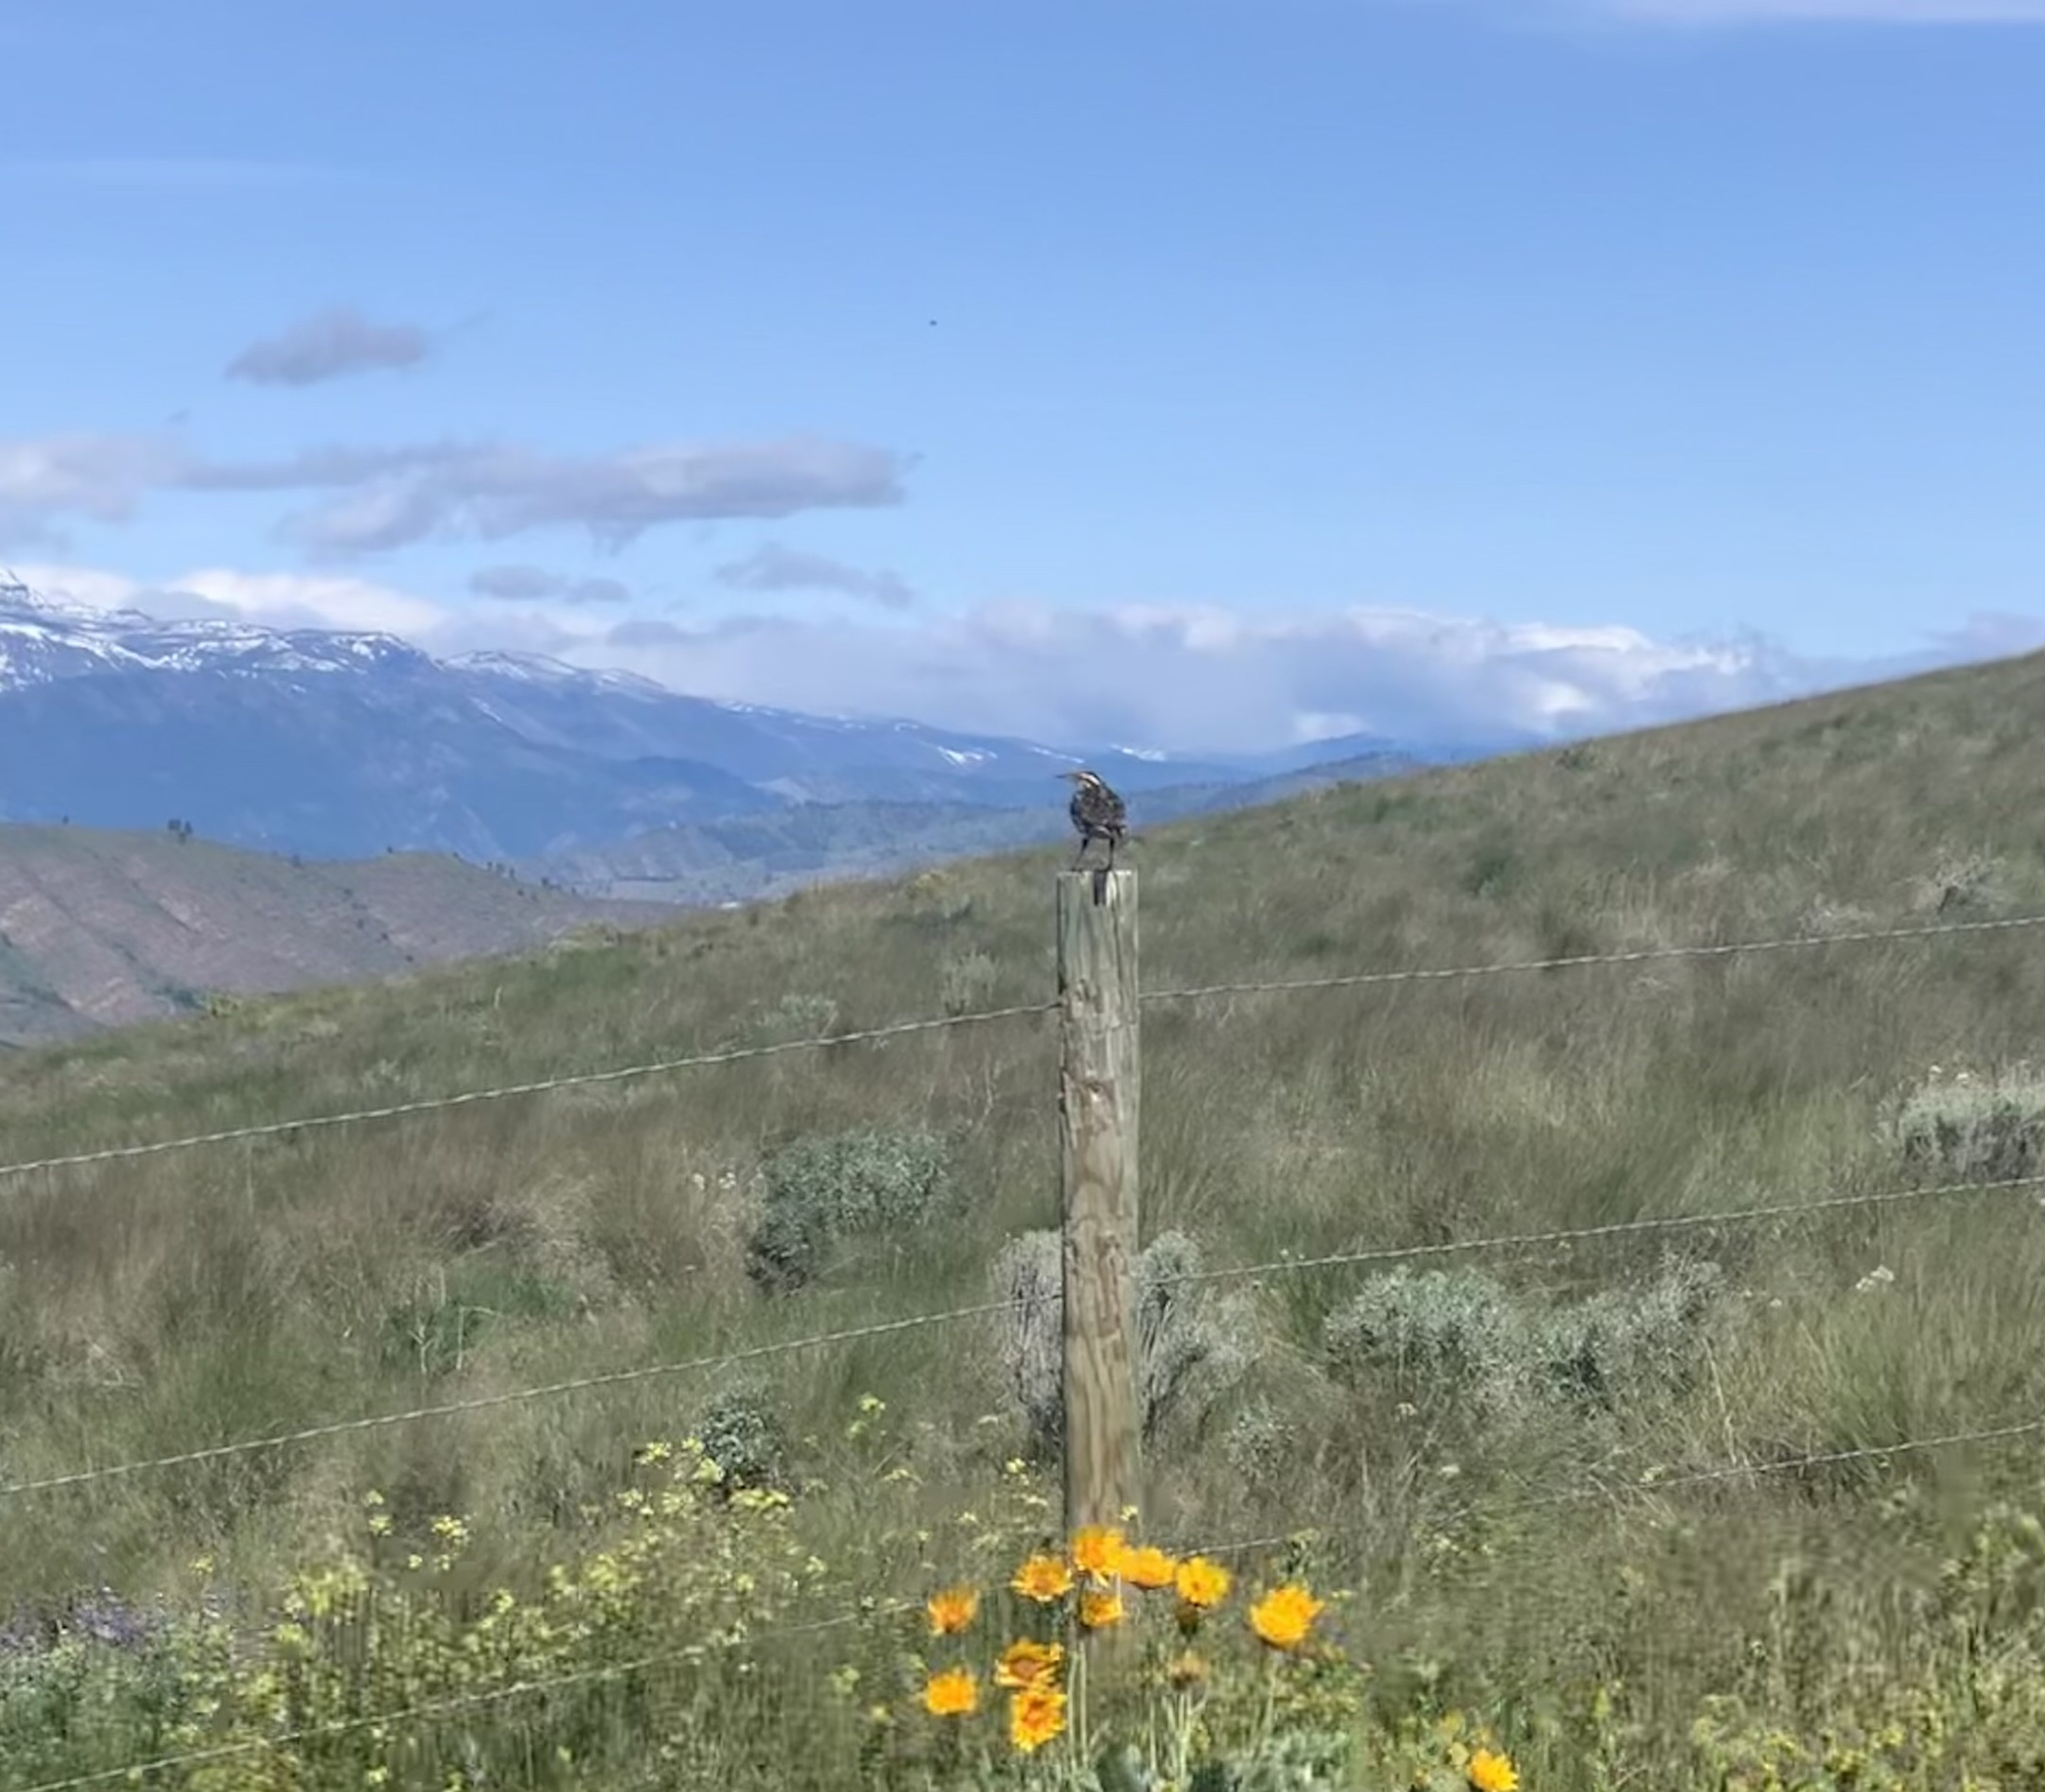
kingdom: Animalia
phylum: Chordata
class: Aves
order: Passeriformes
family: Icteridae
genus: Sturnella
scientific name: Sturnella neglecta
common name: Western meadowlark
